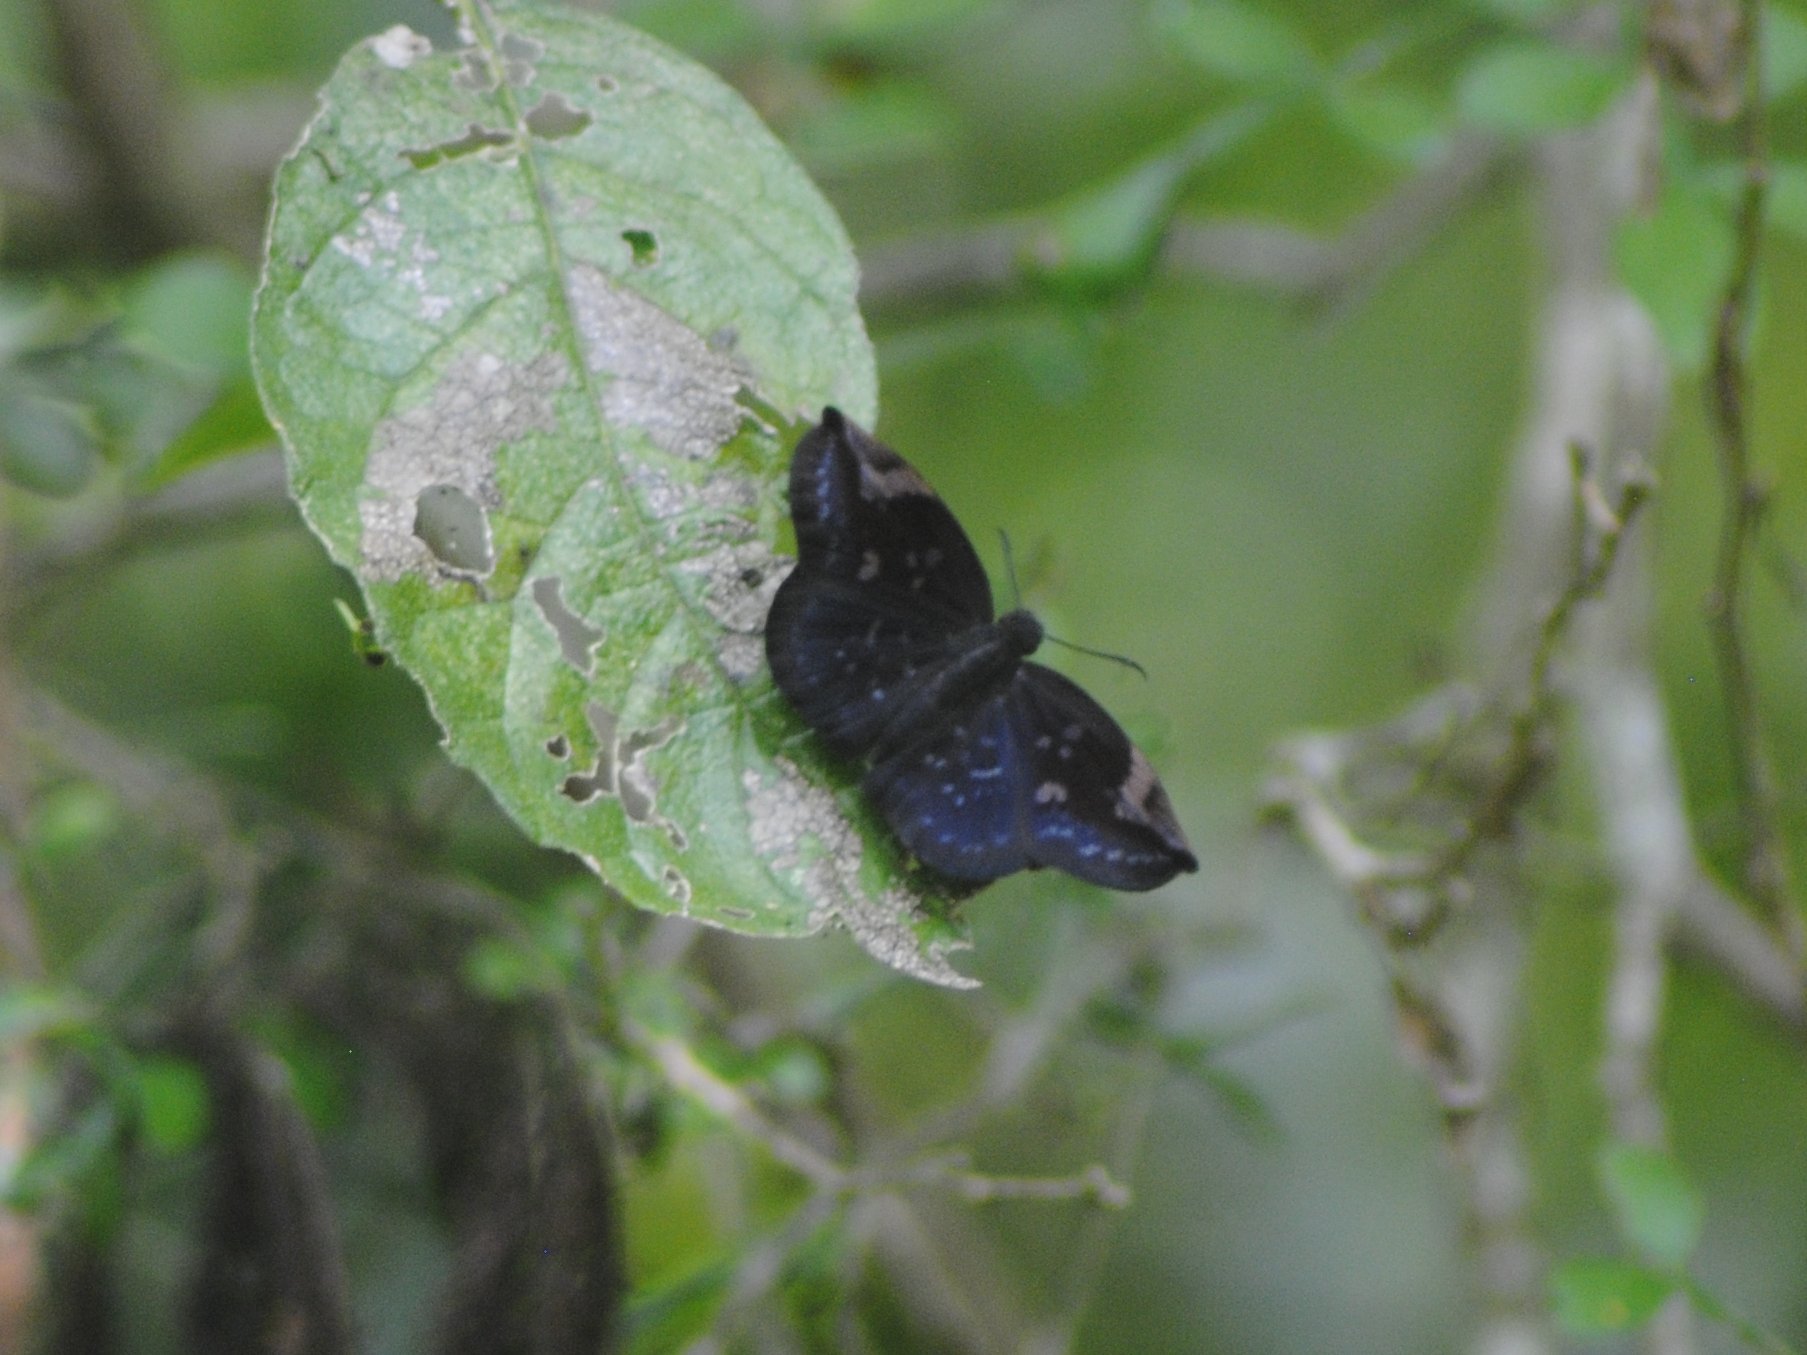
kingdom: Animalia
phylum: Arthropoda
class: Insecta
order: Lepidoptera
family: Hesperiidae
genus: Achlyodes
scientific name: Achlyodes thraso
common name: Sickle-winged skipper
